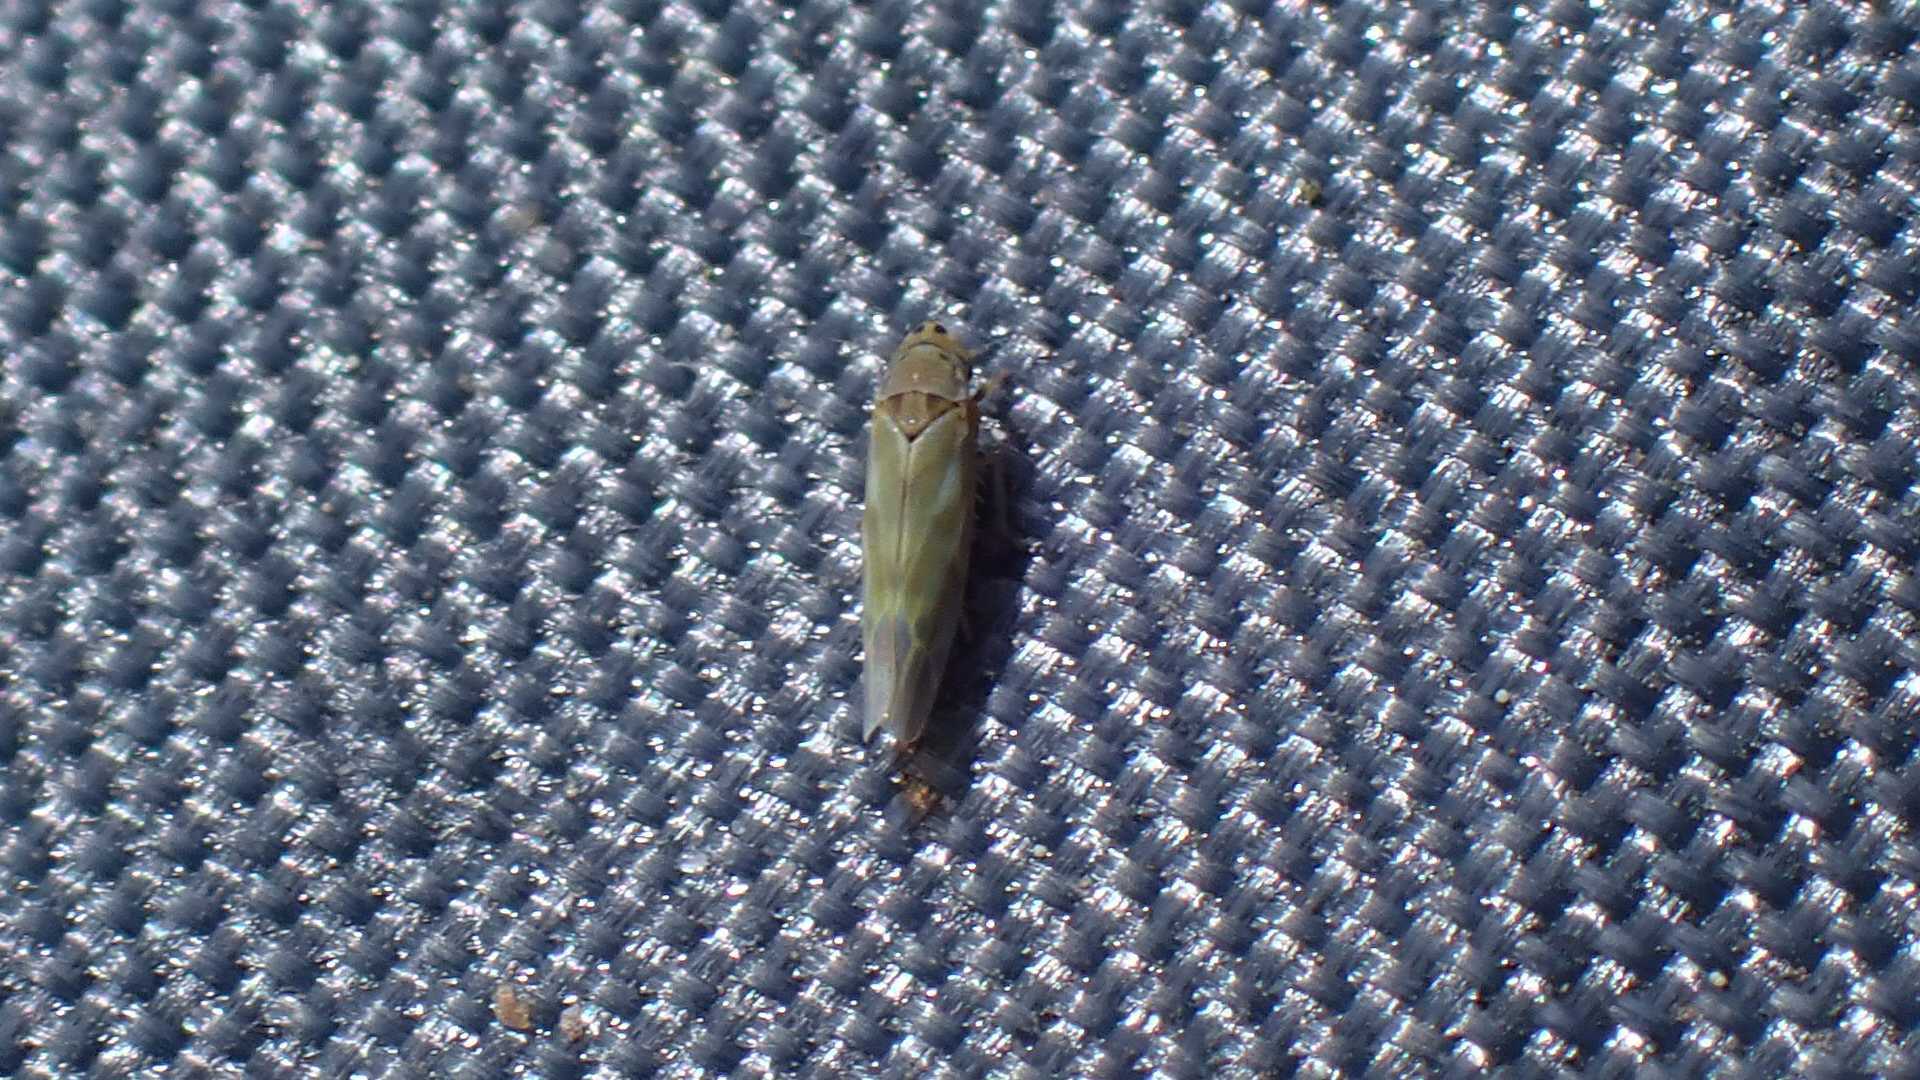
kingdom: Animalia
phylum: Arthropoda
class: Insecta
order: Hemiptera
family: Cicadellidae
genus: Frutioidia
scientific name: Frutioidia bisignata
